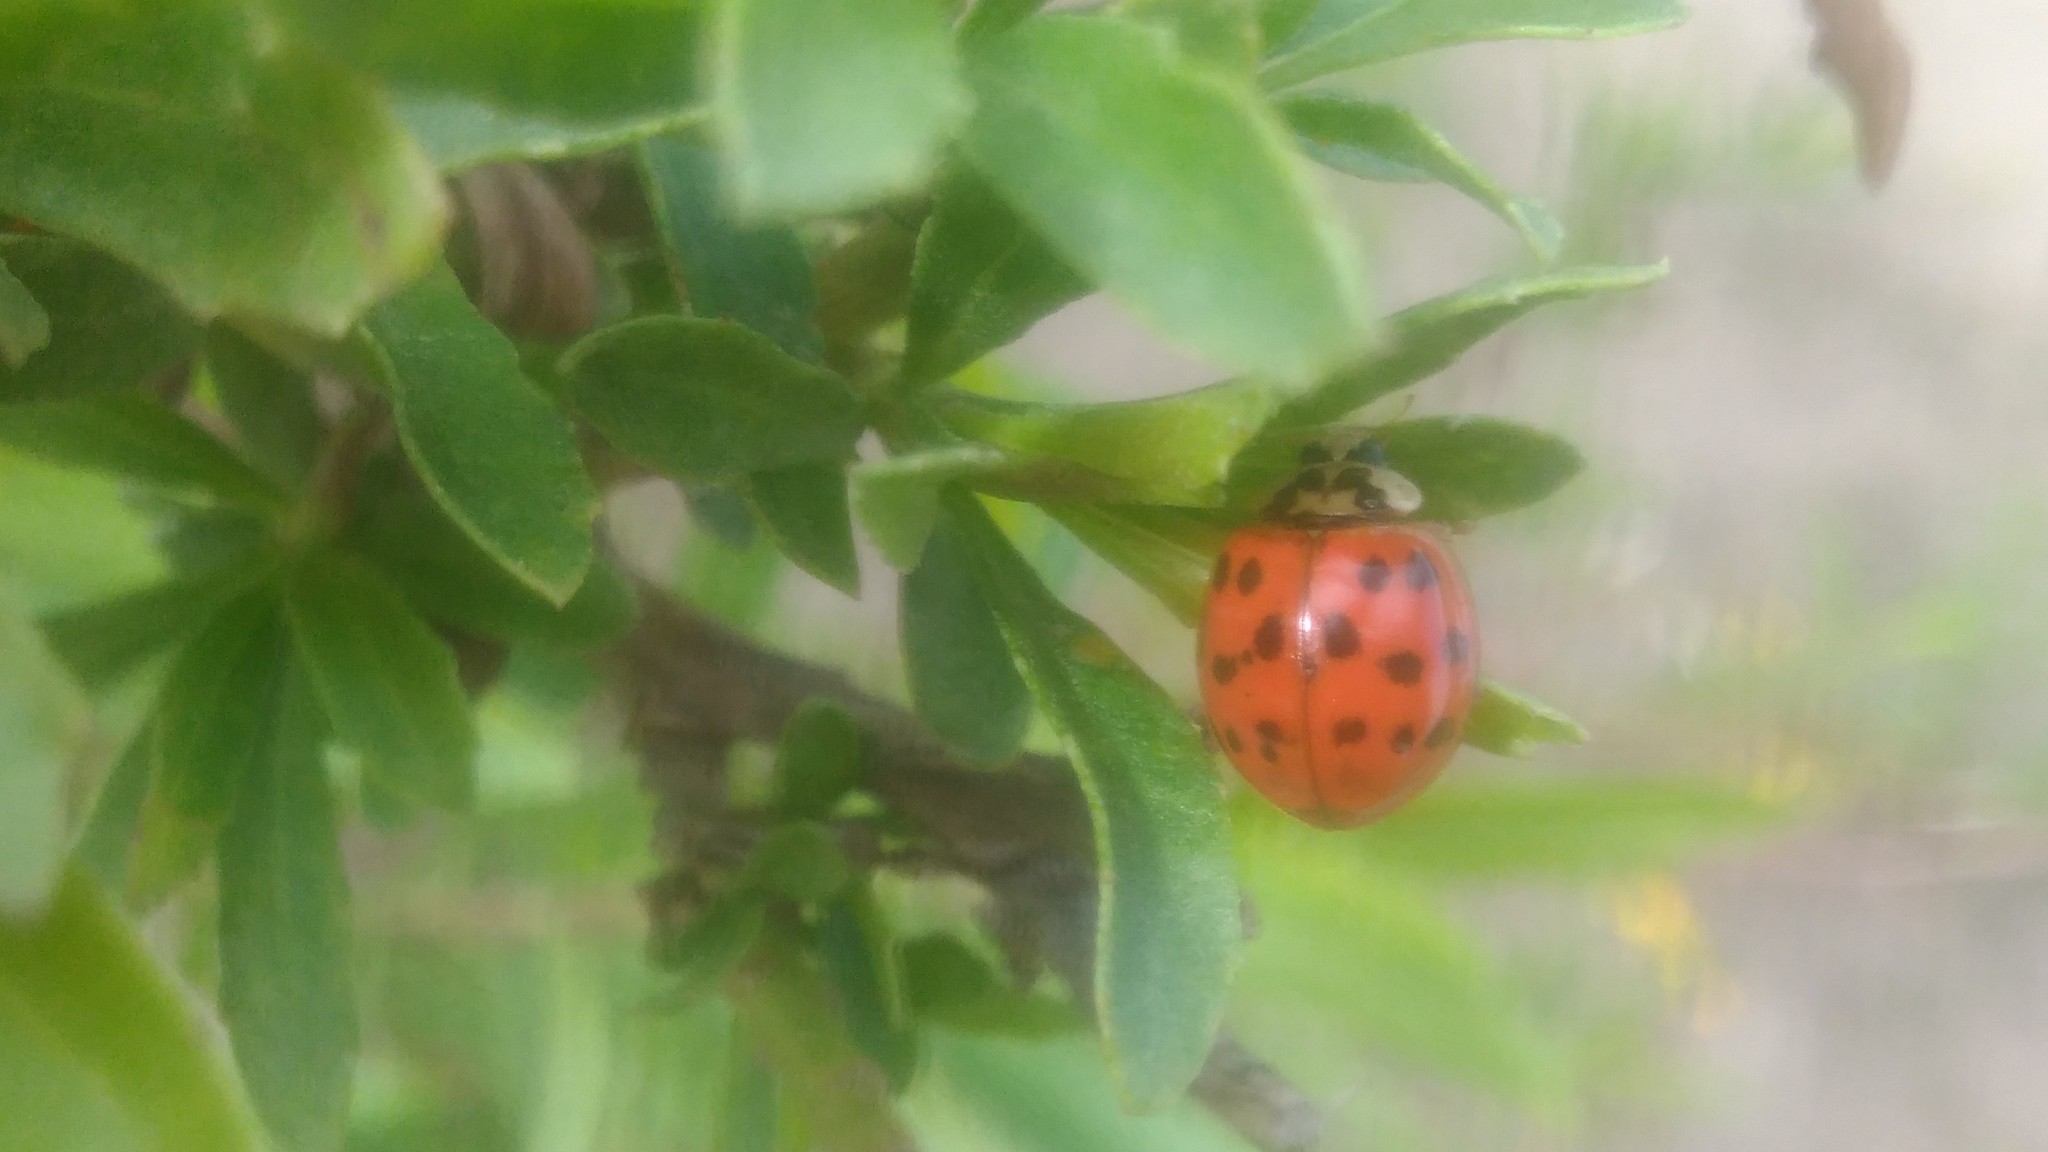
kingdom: Animalia
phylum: Arthropoda
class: Insecta
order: Coleoptera
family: Coccinellidae
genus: Harmonia
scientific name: Harmonia axyridis
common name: Harlequin ladybird
